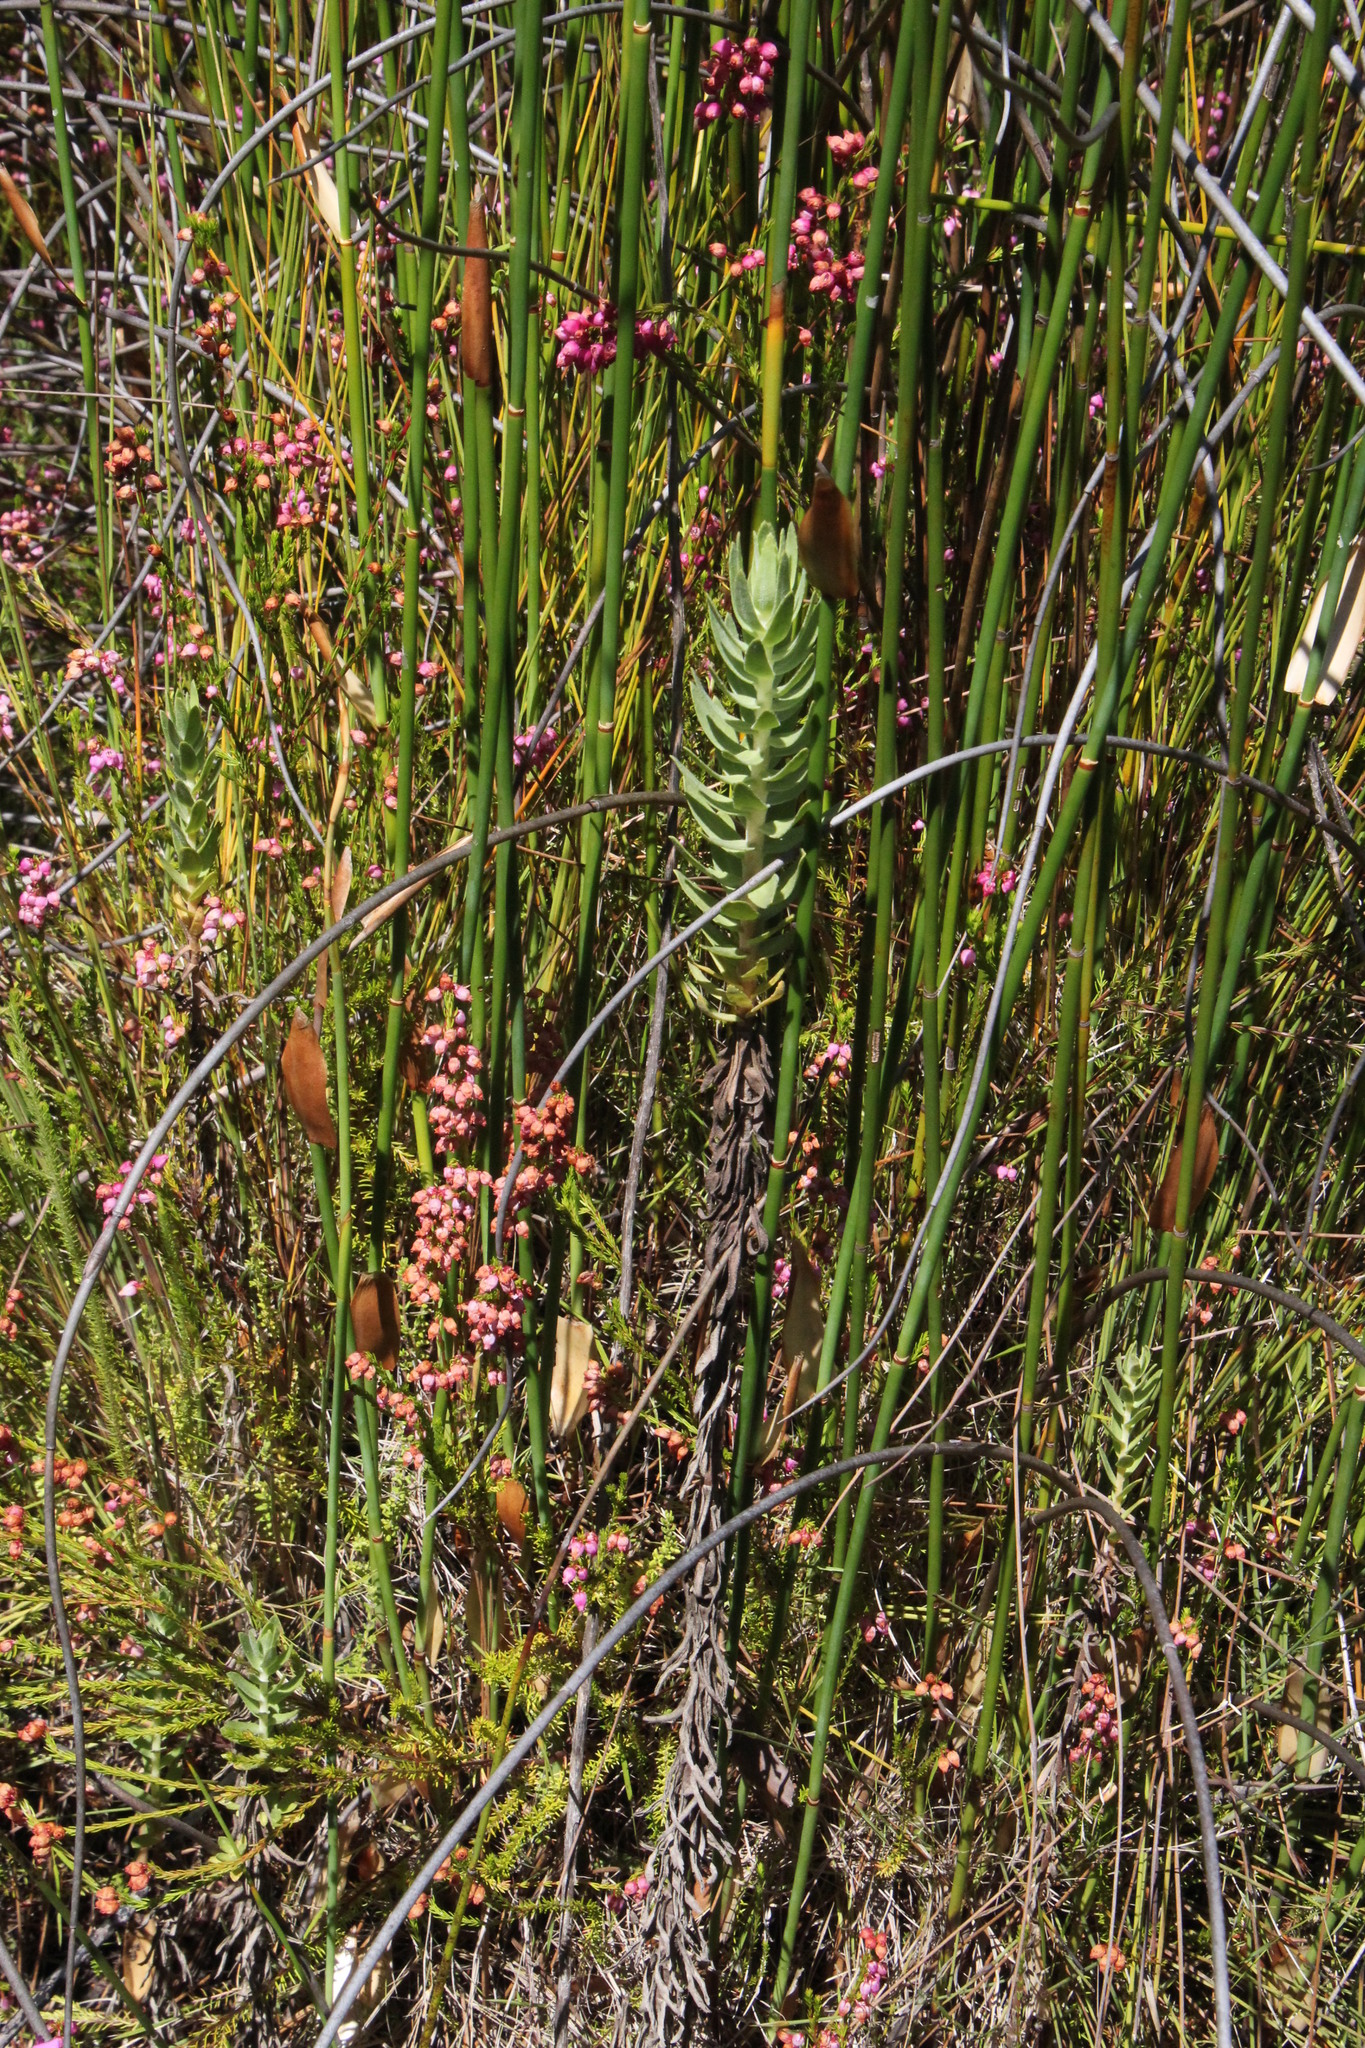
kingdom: Plantae
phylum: Tracheophyta
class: Magnoliopsida
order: Ericales
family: Ericaceae
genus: Erica
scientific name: Erica laeta
